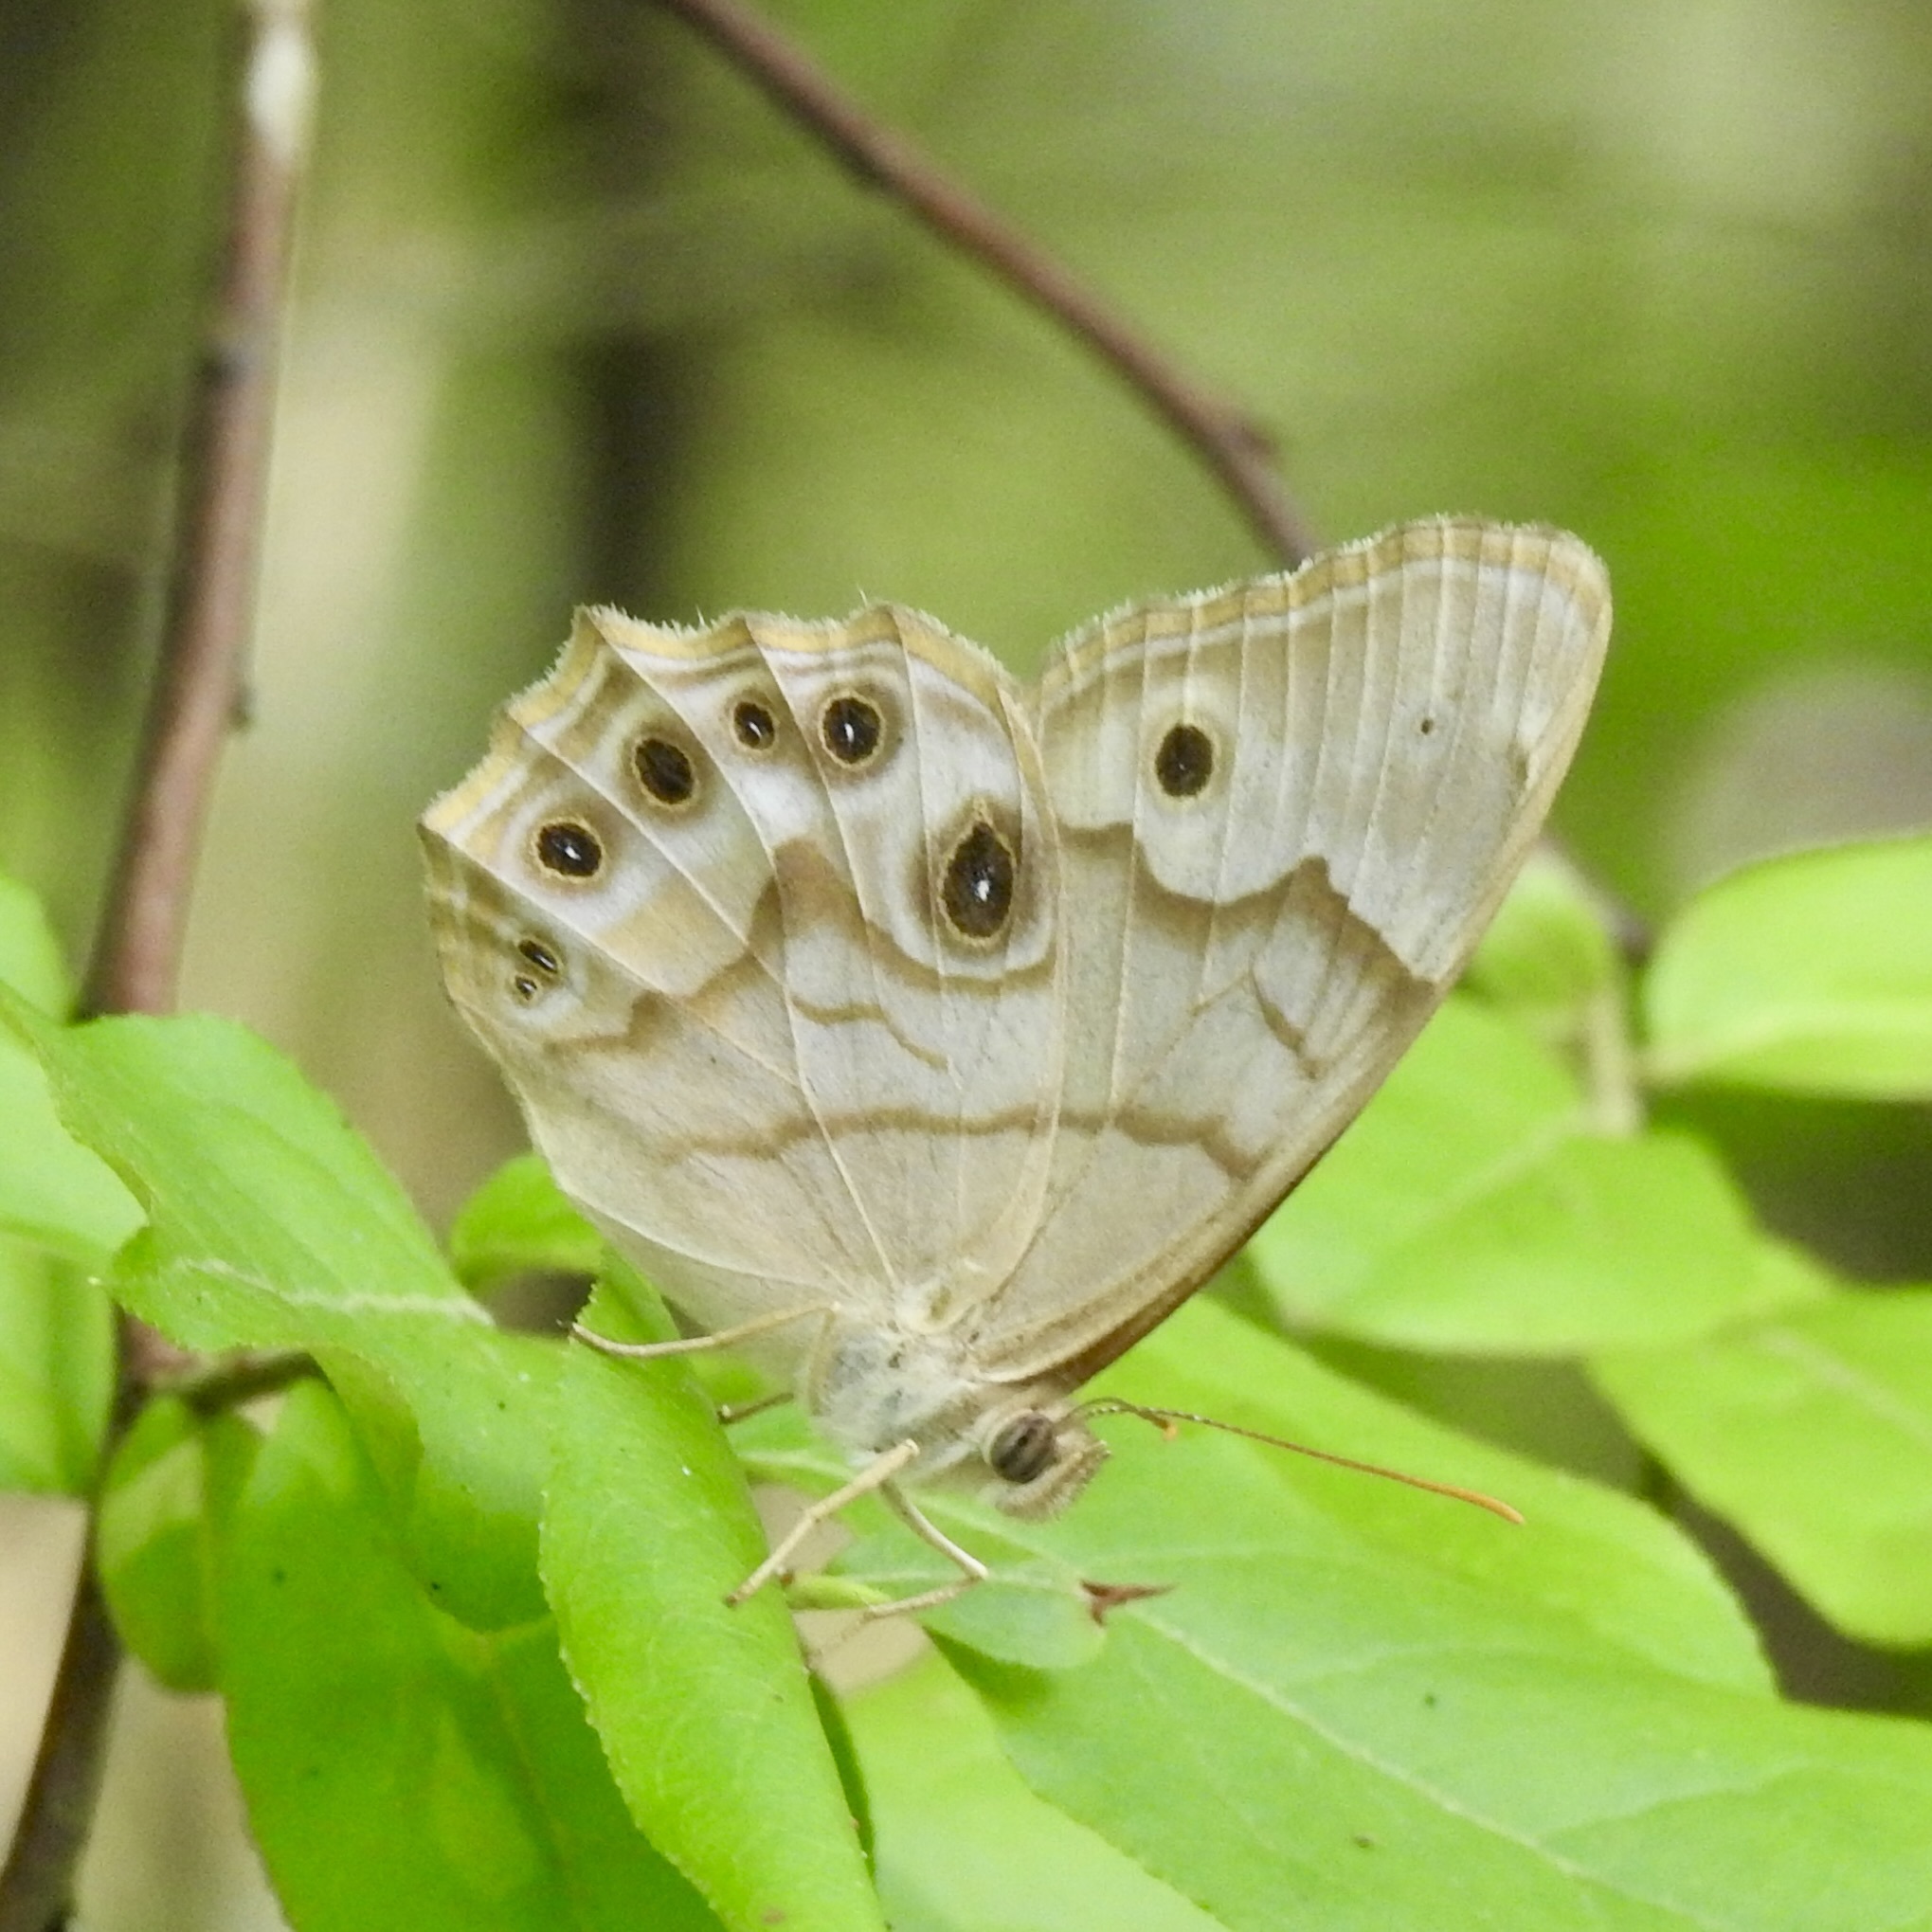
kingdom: Animalia
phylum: Arthropoda
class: Insecta
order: Lepidoptera
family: Nymphalidae
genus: Enodia
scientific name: Enodia portlandia
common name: Southern pearly-eye
